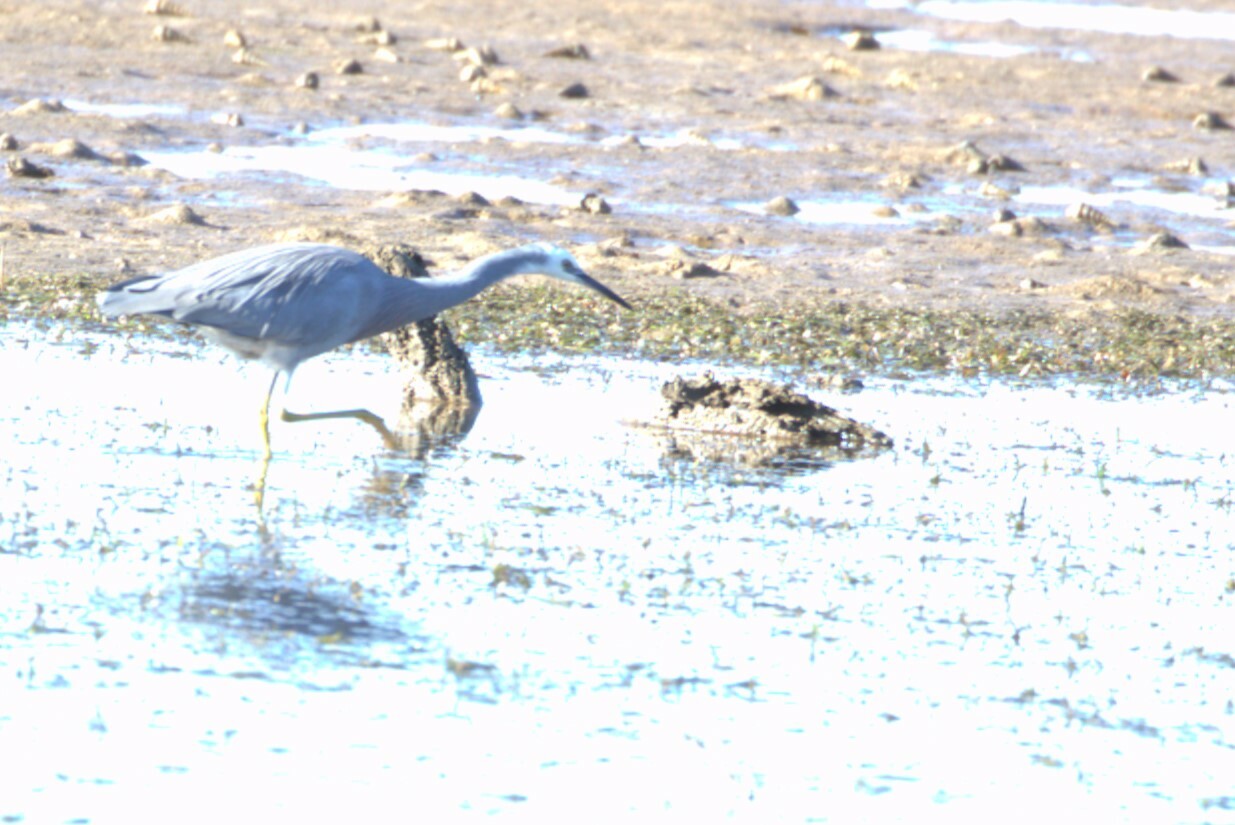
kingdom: Animalia
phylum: Chordata
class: Aves
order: Pelecaniformes
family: Ardeidae
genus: Egretta
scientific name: Egretta novaehollandiae
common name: White-faced heron
